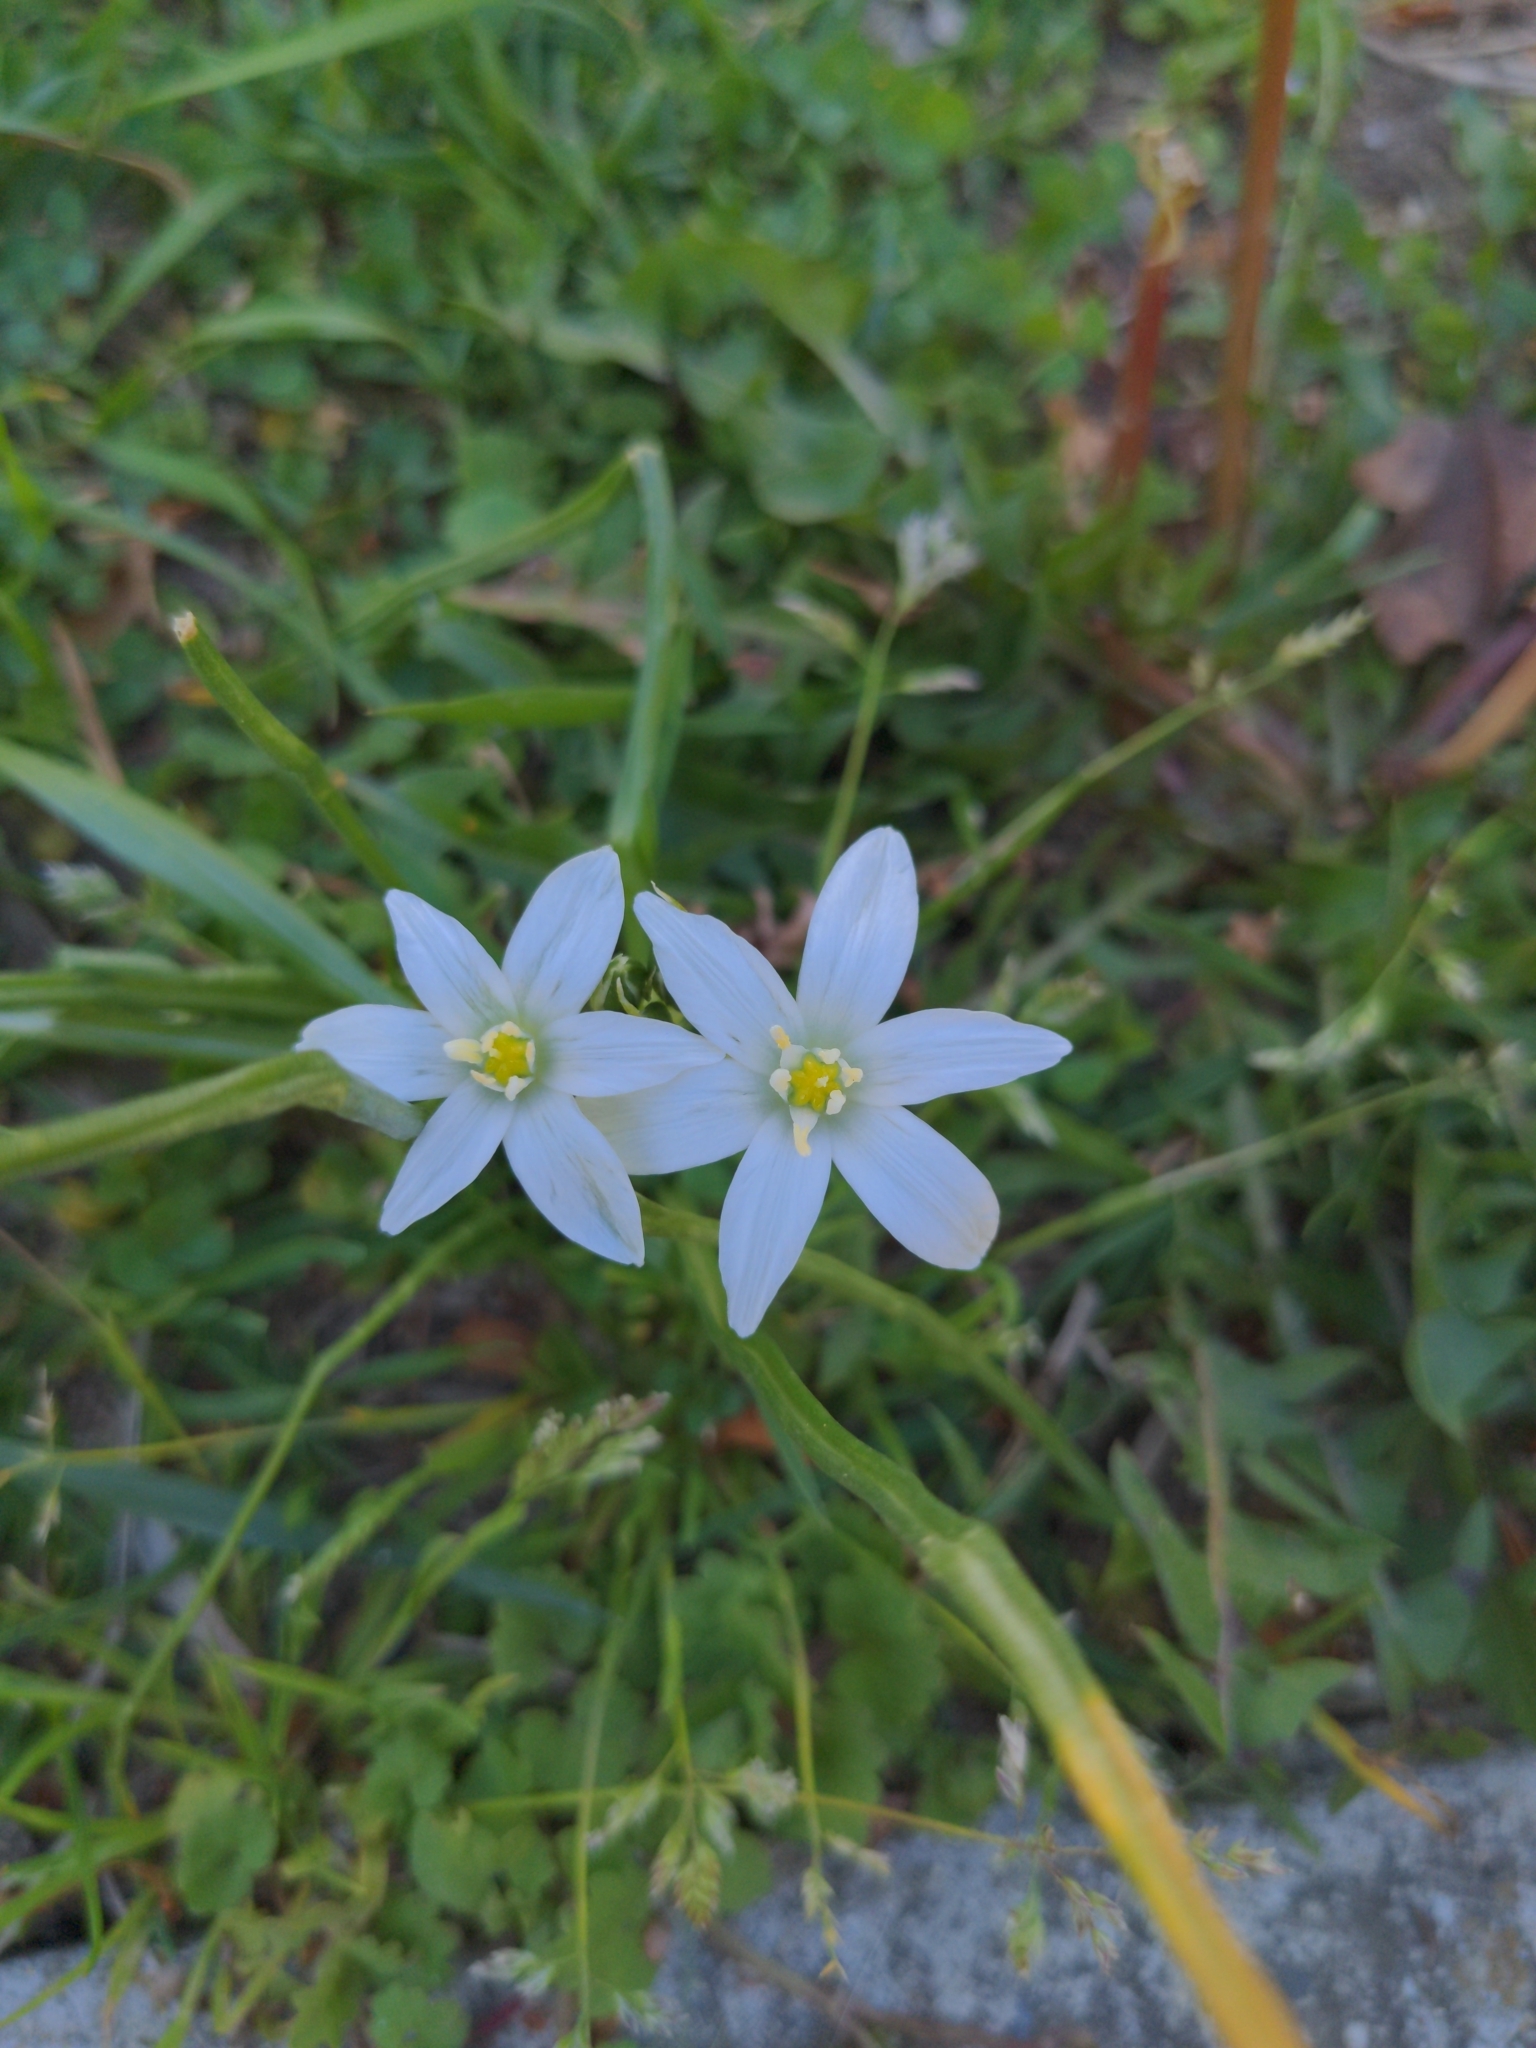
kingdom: Plantae
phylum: Tracheophyta
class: Liliopsida
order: Asparagales
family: Asparagaceae
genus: Ornithogalum
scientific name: Ornithogalum umbellatum
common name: Garden star-of-bethlehem
